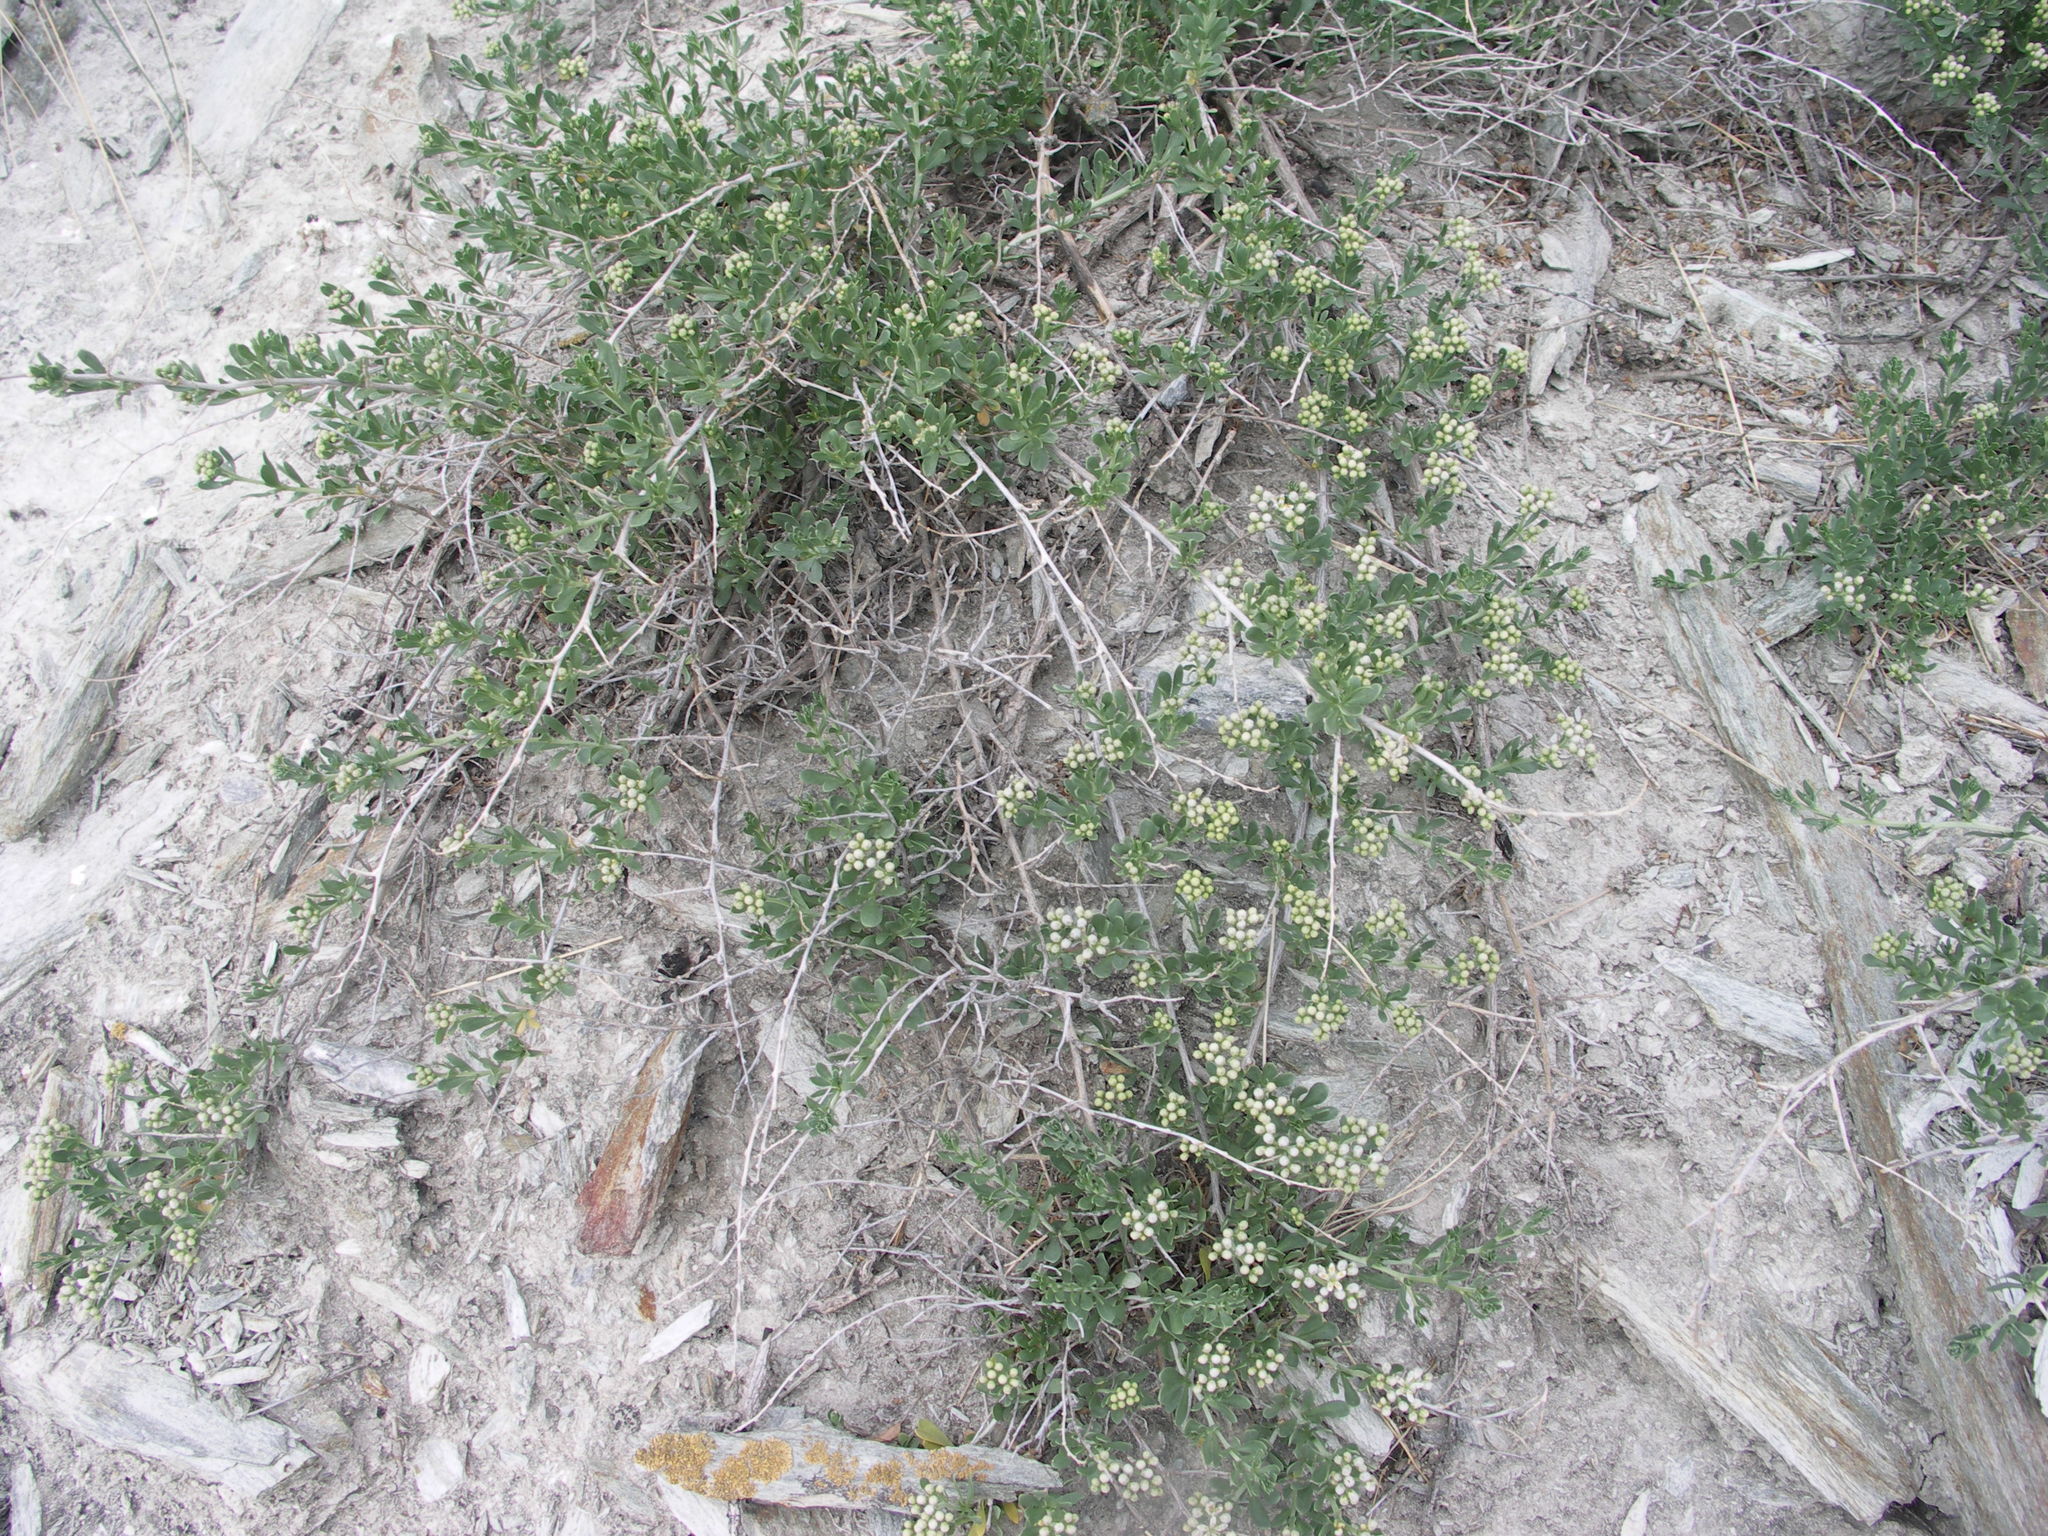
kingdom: Plantae
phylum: Tracheophyta
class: Magnoliopsida
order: Sapindales
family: Nitrariaceae
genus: Nitraria
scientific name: Nitraria sibirica
